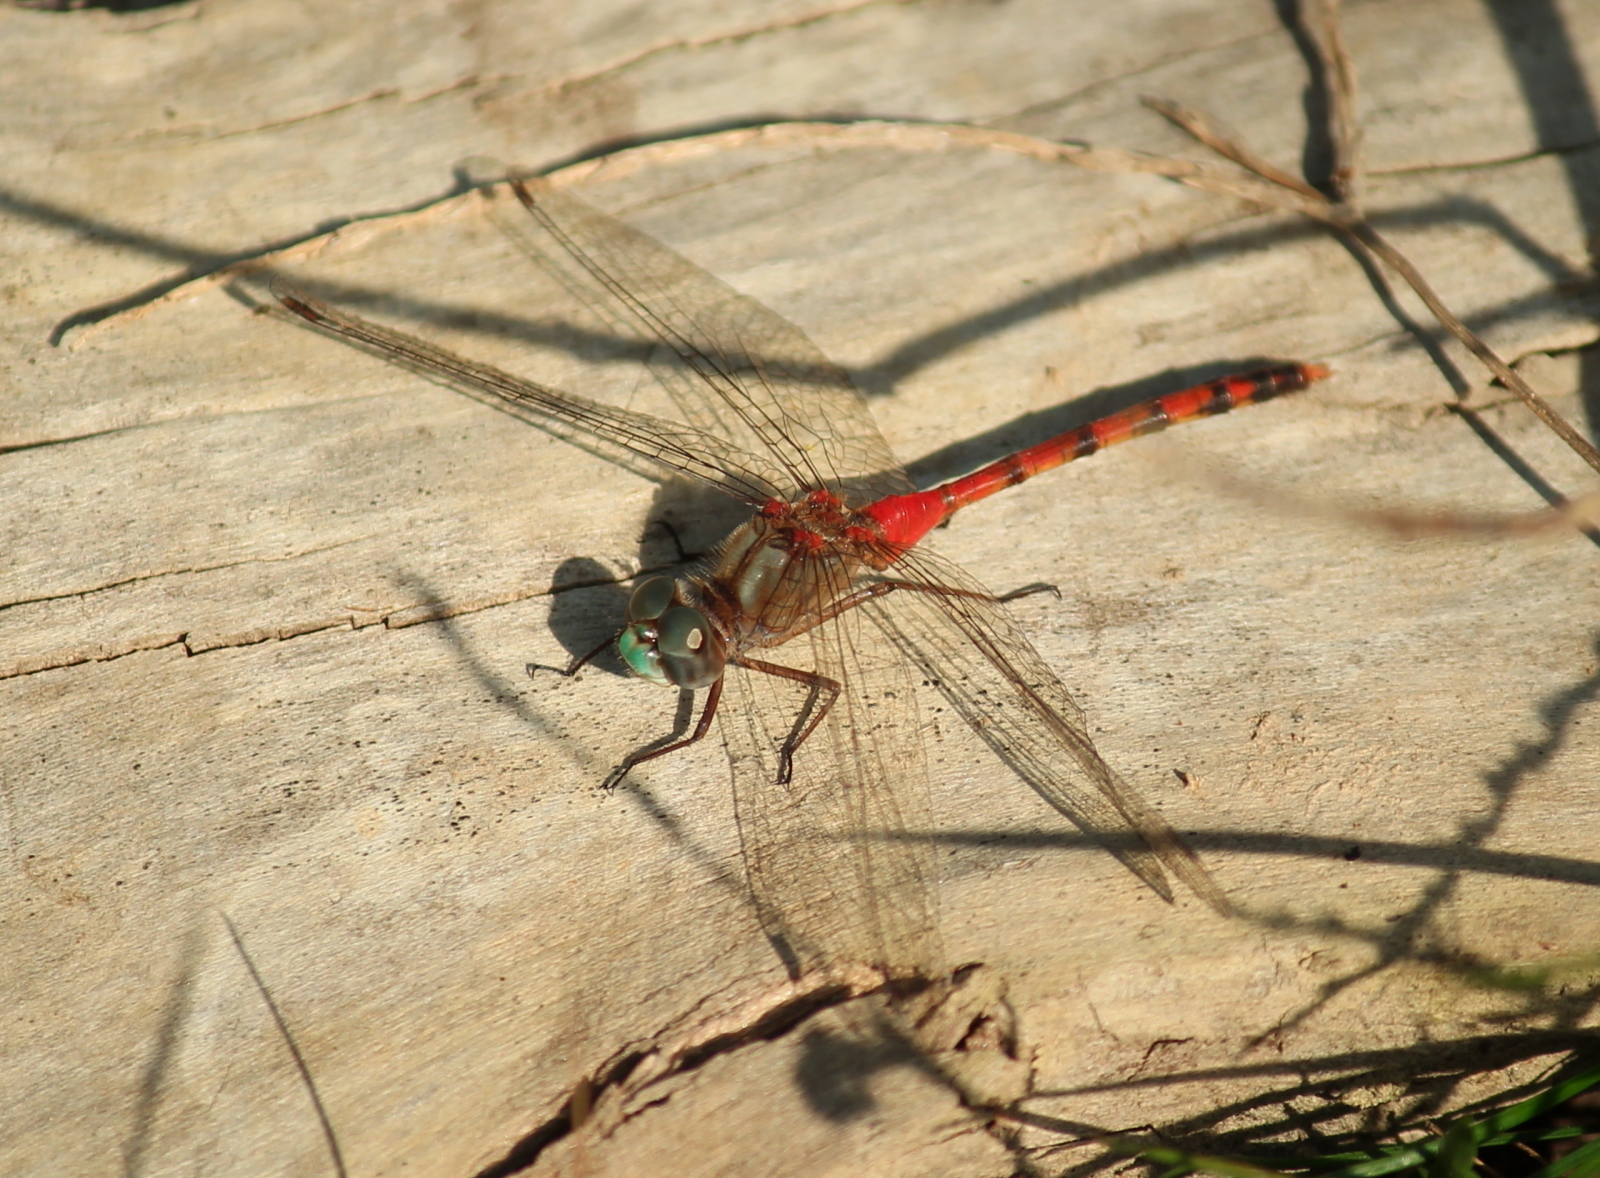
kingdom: Animalia
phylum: Arthropoda
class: Insecta
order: Odonata
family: Libellulidae
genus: Sympetrum
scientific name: Sympetrum ambiguum
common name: Blue-faced meadowhawk
